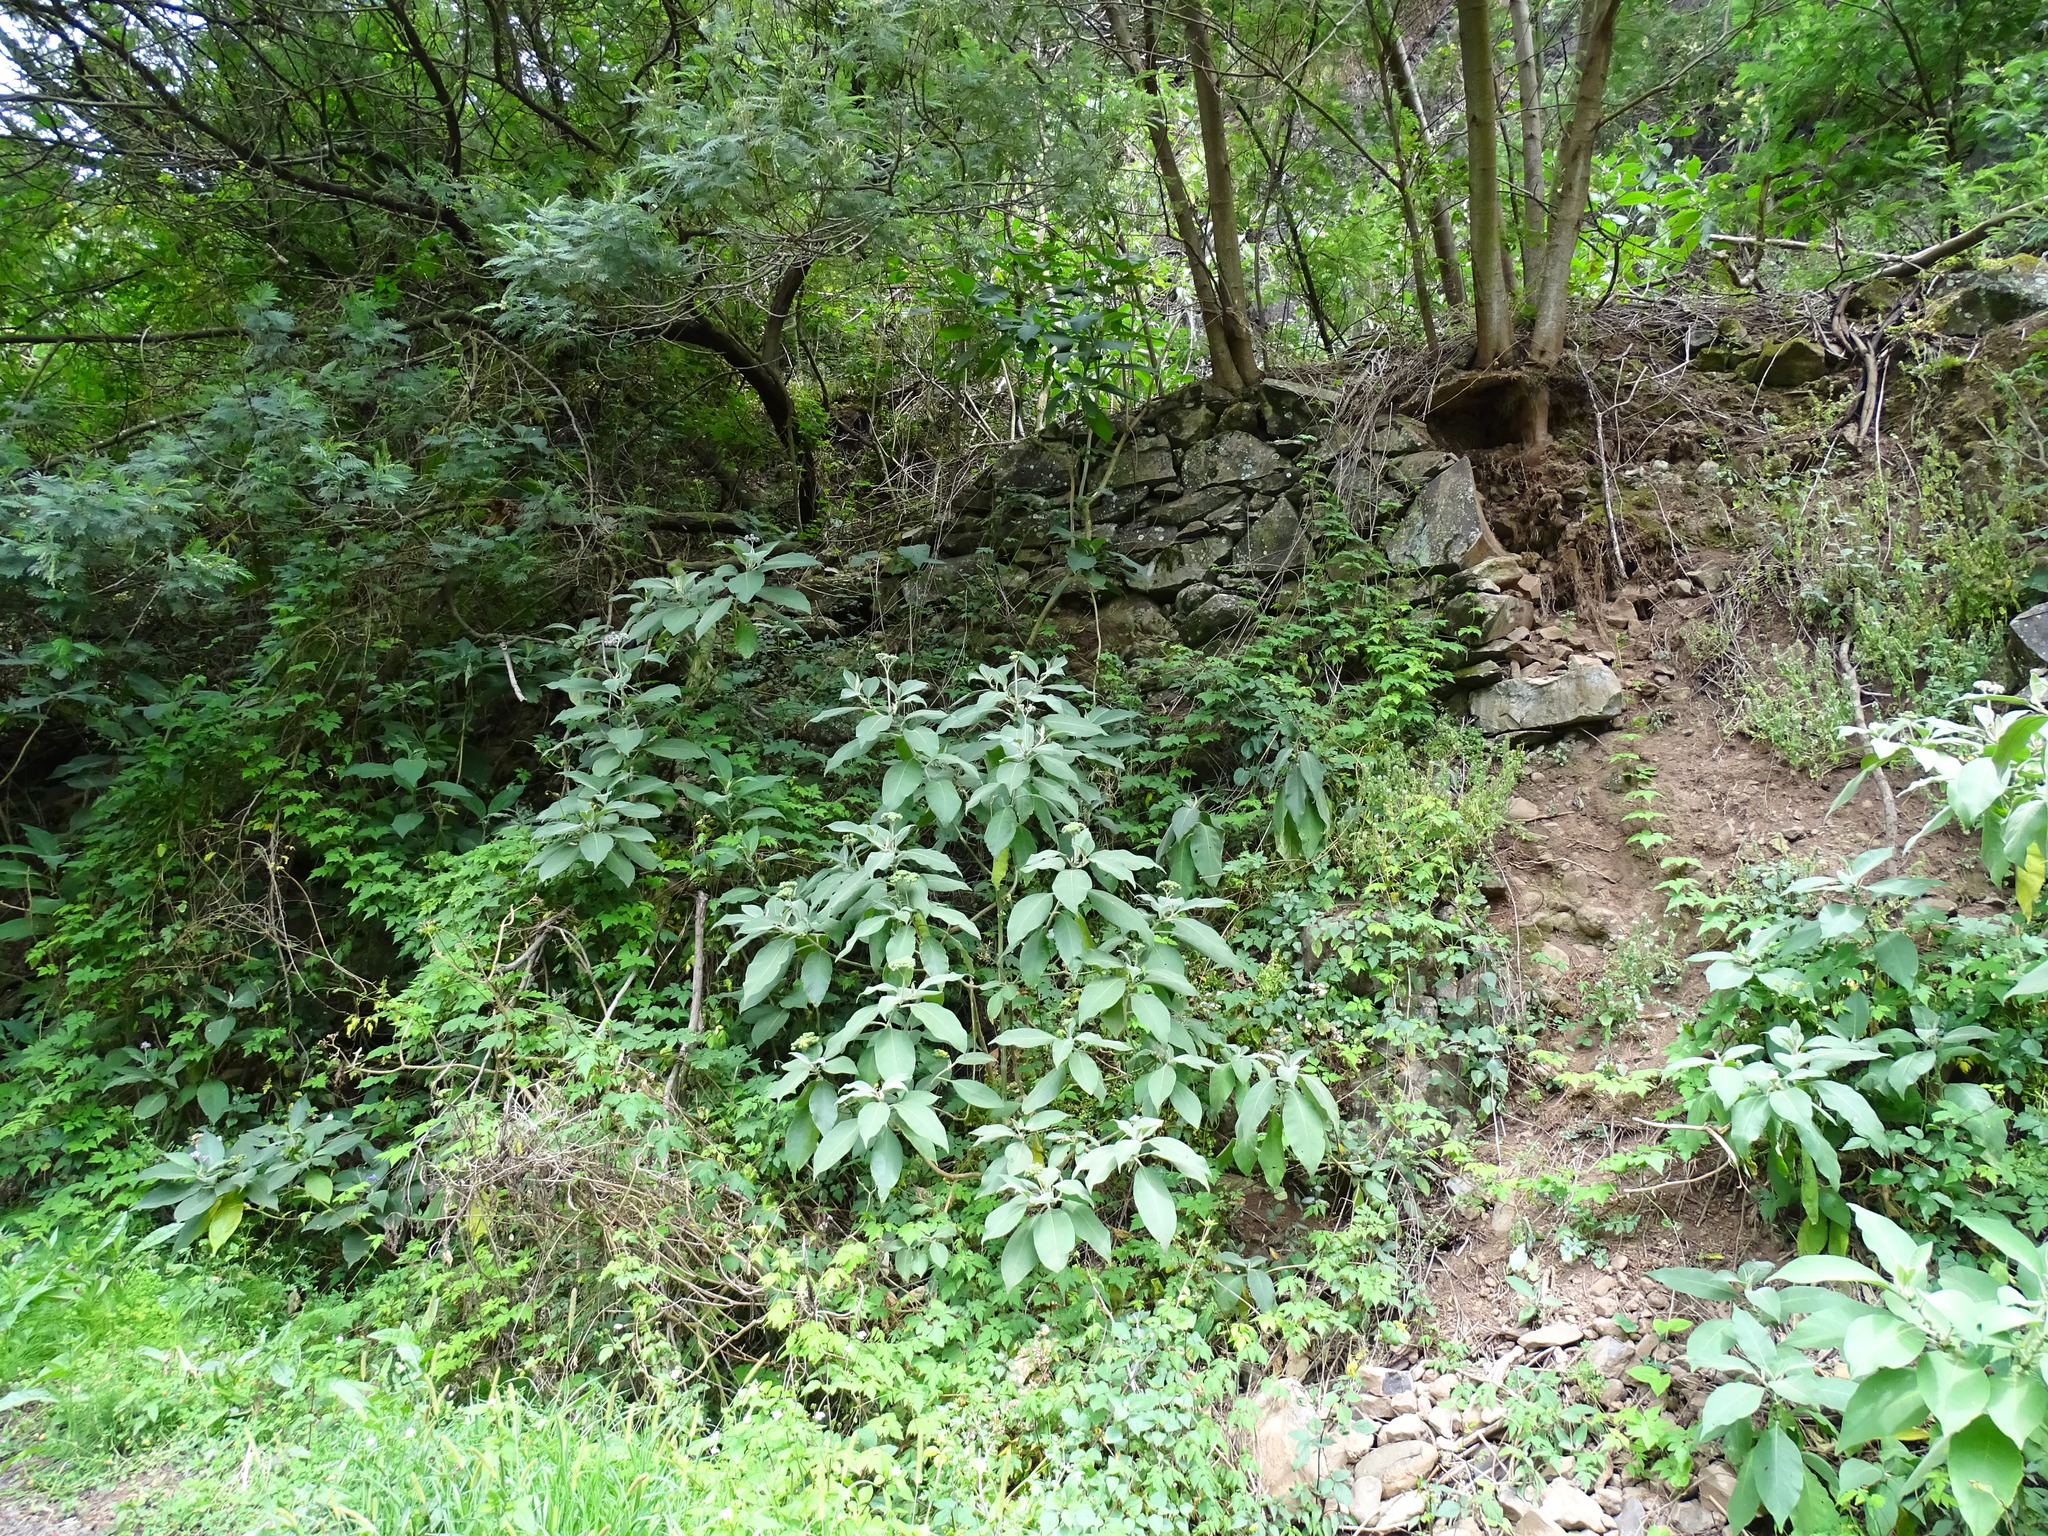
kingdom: Plantae
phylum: Tracheophyta
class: Magnoliopsida
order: Solanales
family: Solanaceae
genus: Solanum
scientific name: Solanum mauritianum
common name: Earleaf nightshade
